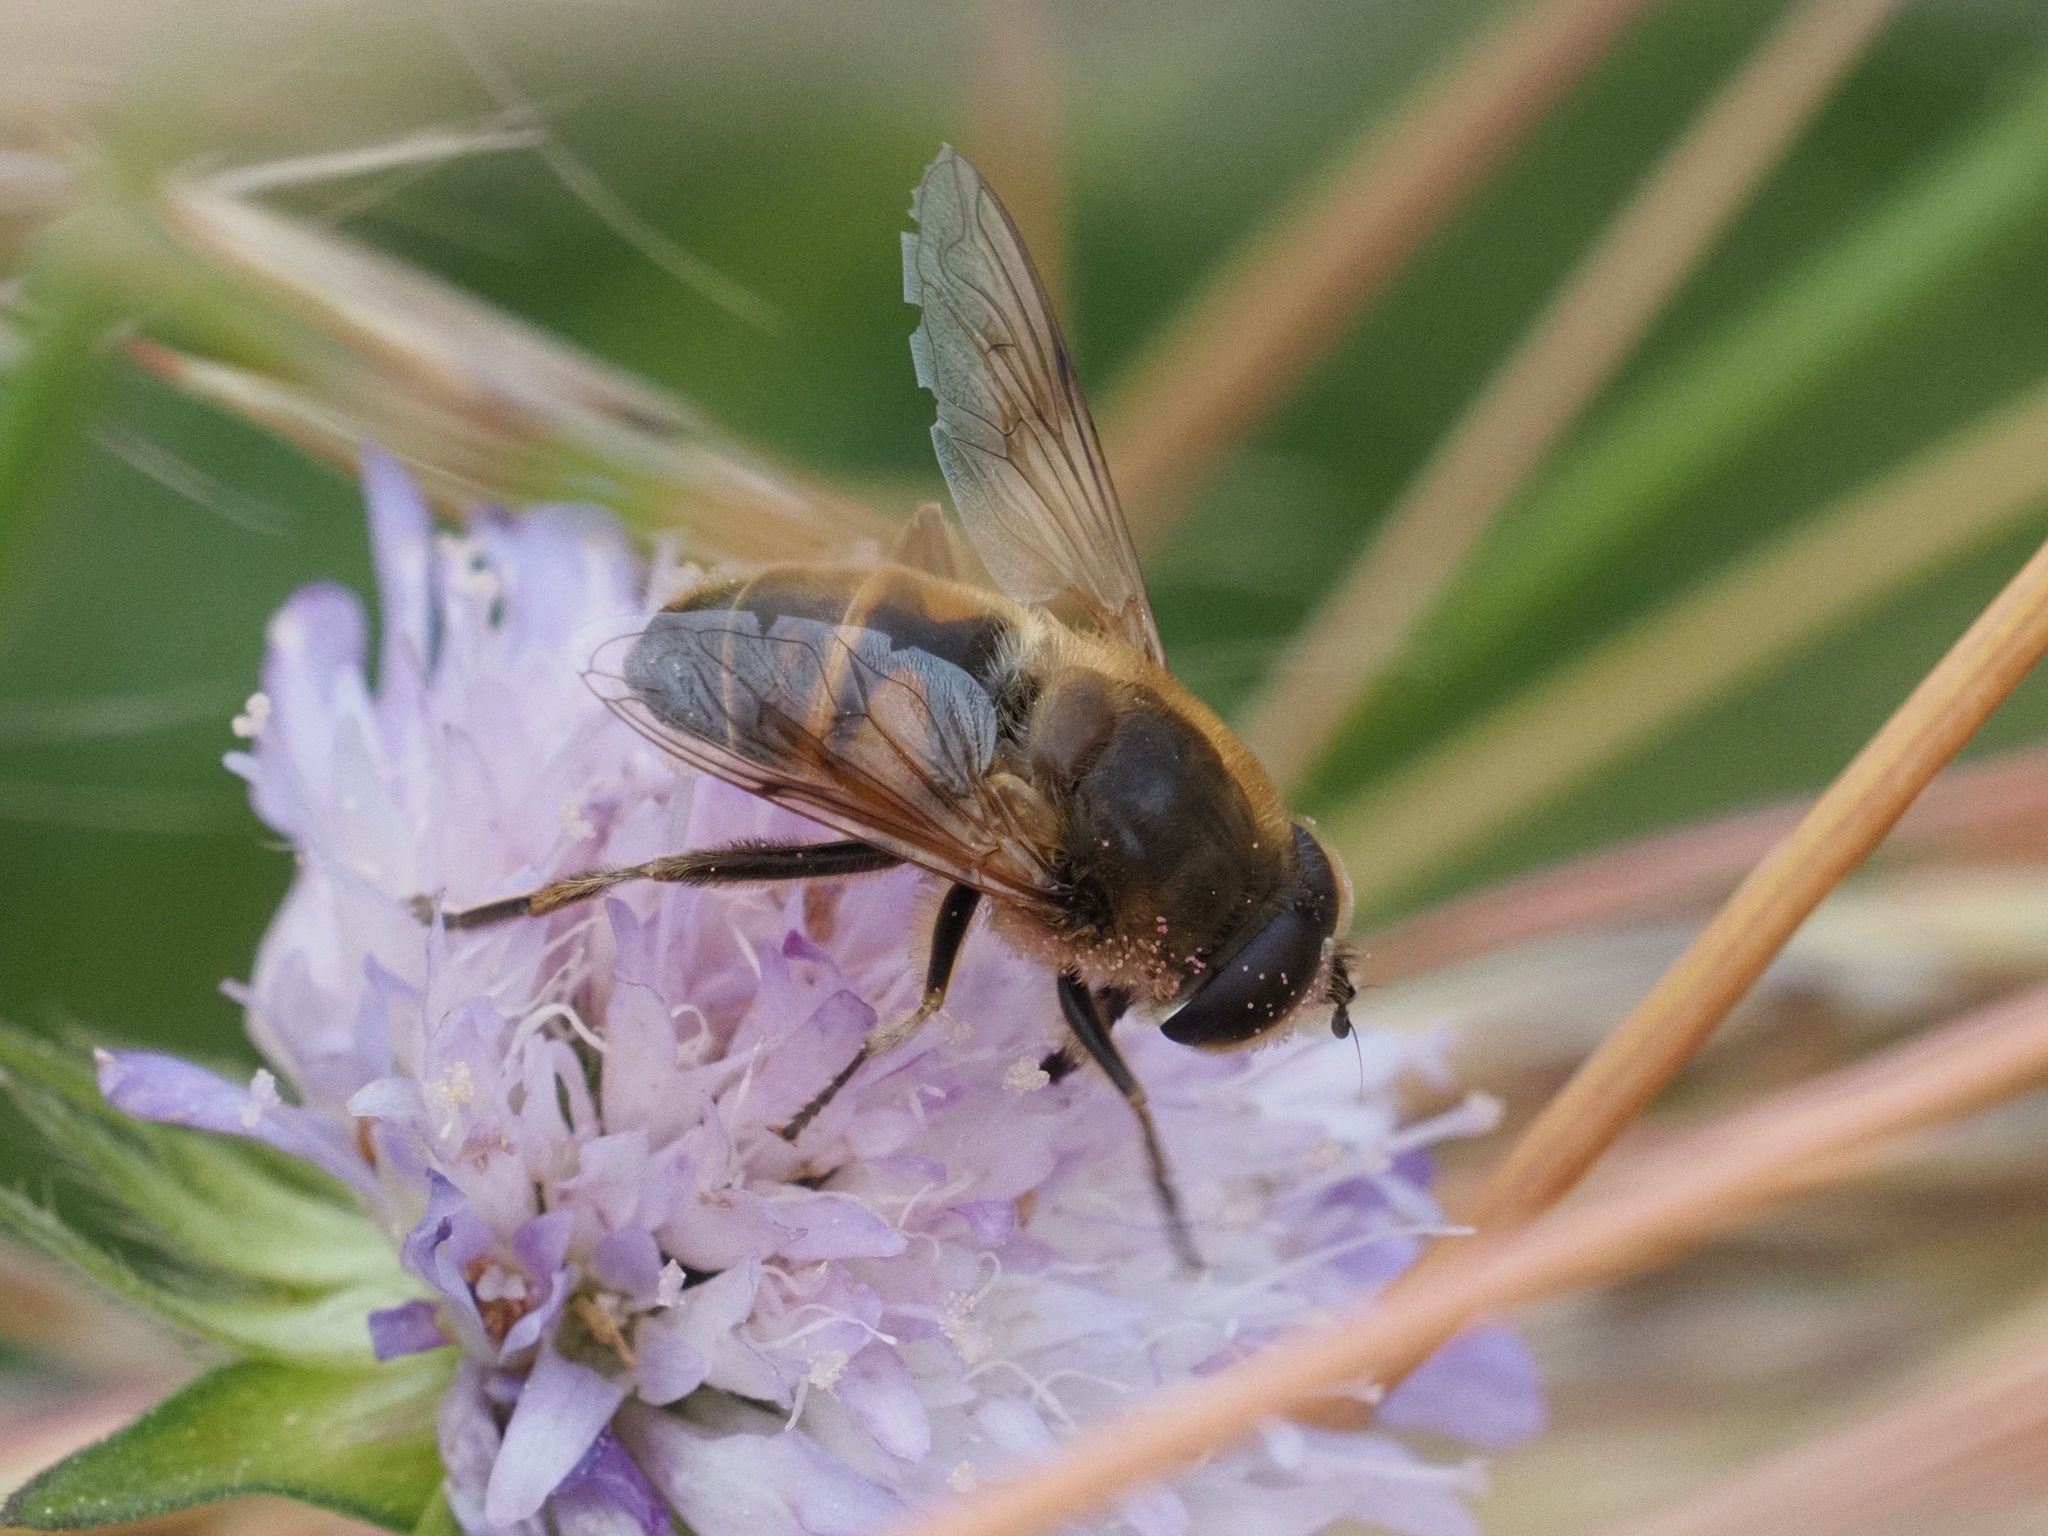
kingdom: Animalia
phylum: Arthropoda
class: Insecta
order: Diptera
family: Syrphidae
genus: Eristalis
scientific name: Eristalis tenax
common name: Drone fly
